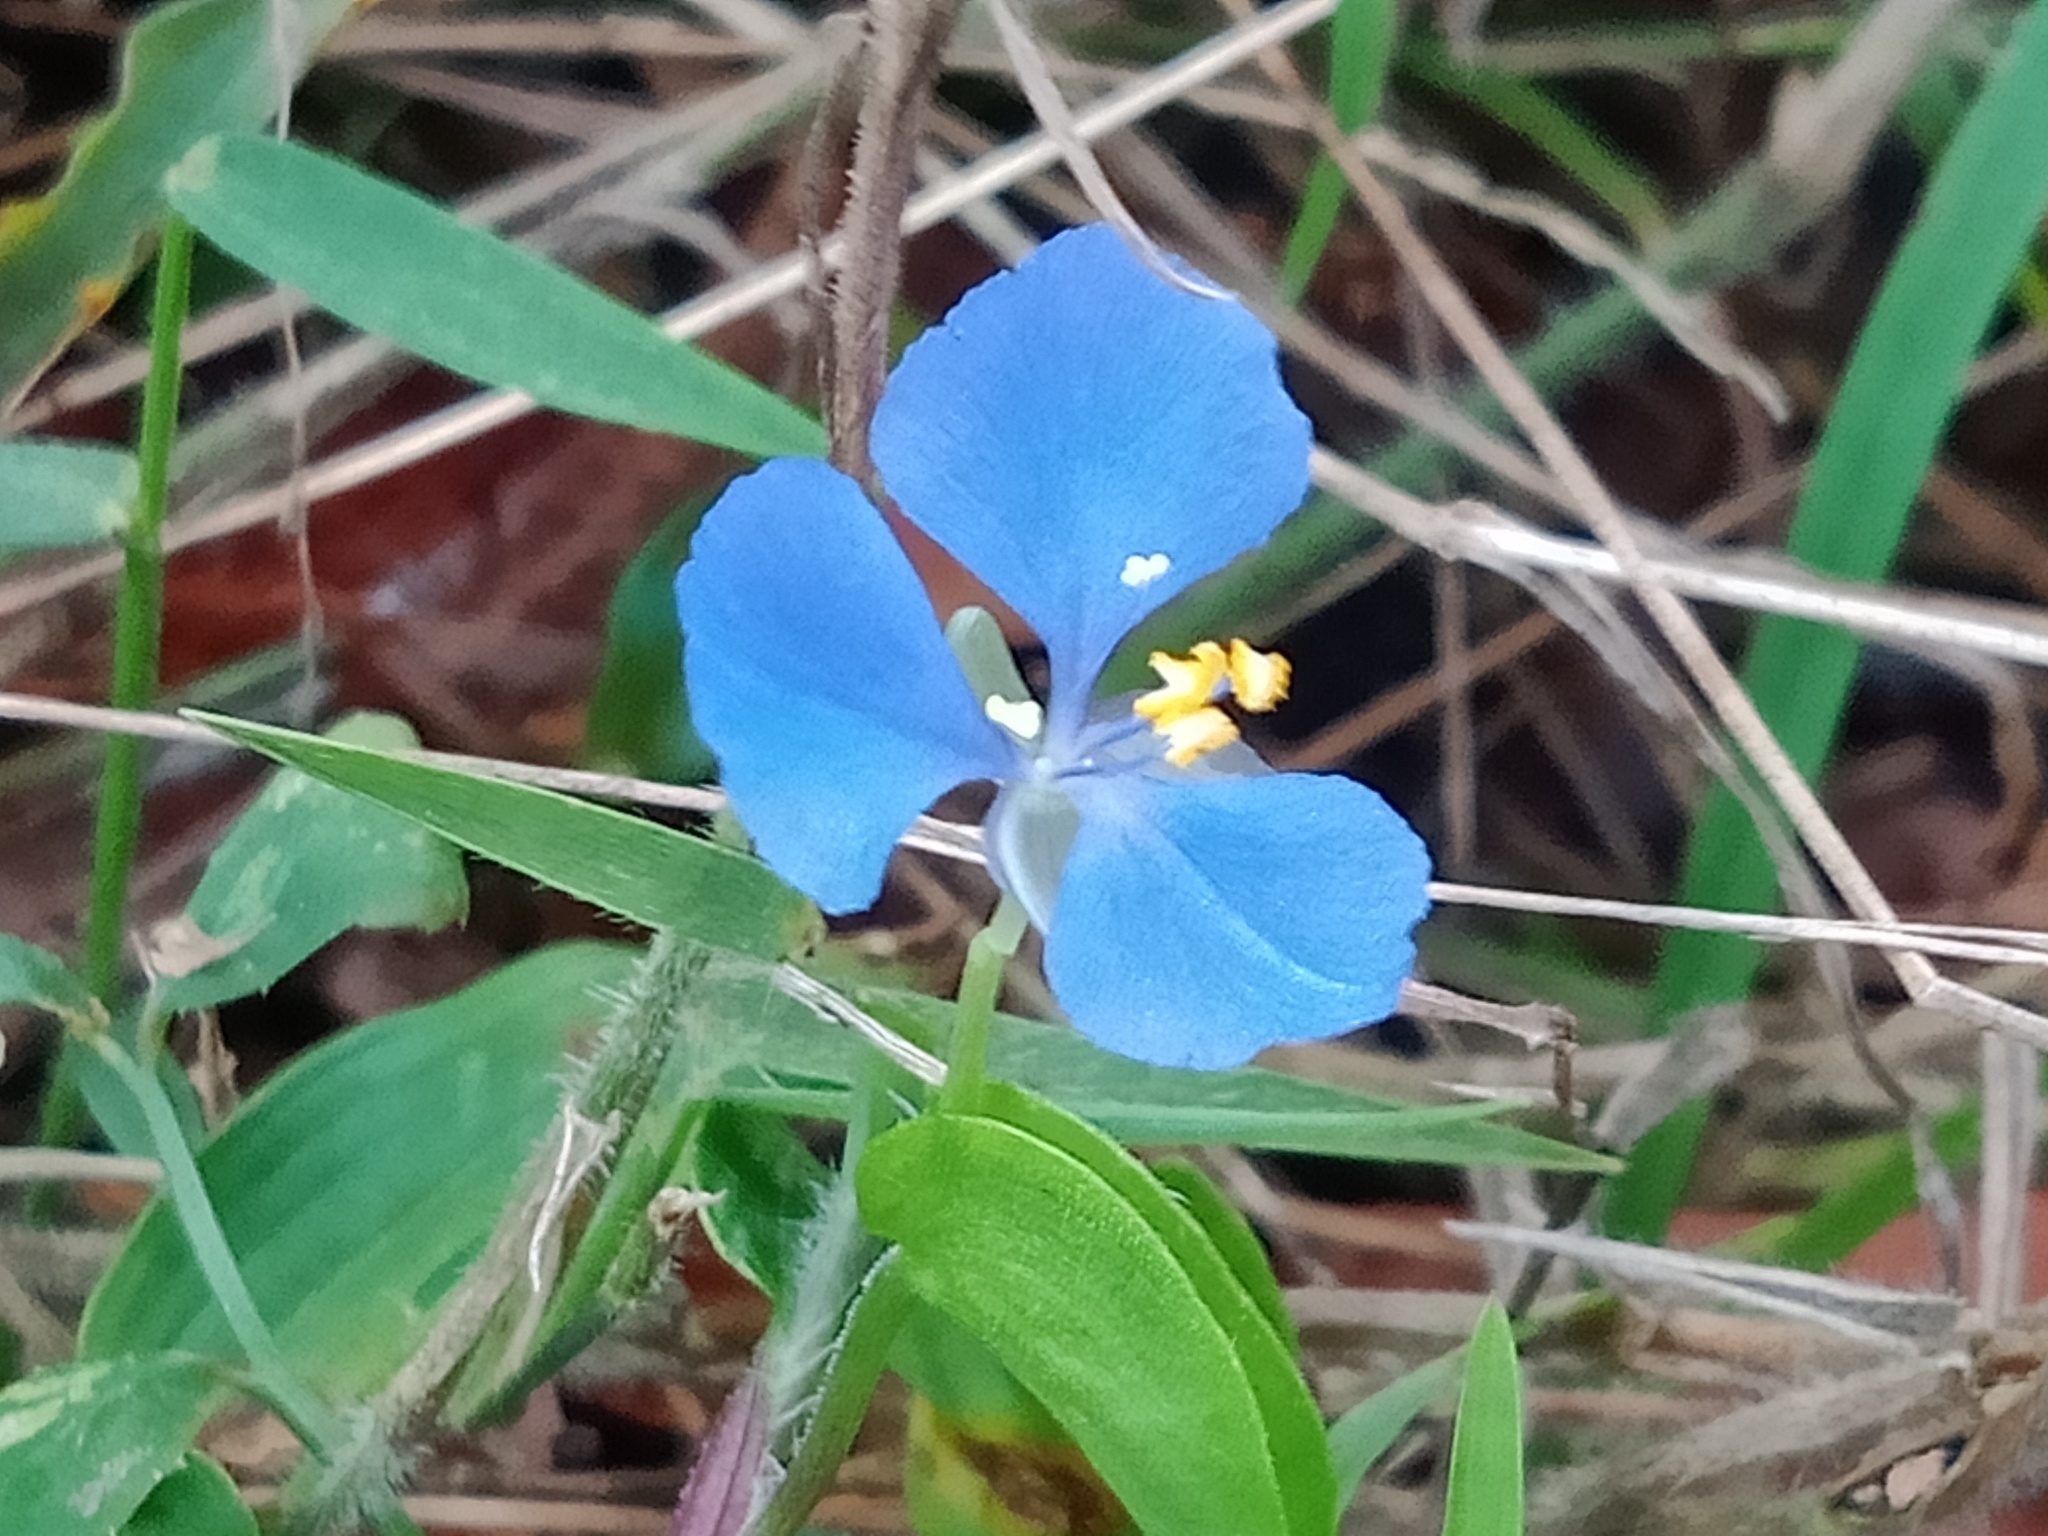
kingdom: Plantae
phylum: Tracheophyta
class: Liliopsida
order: Commelinales
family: Commelinaceae
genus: Commelina
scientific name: Commelina cyanea
